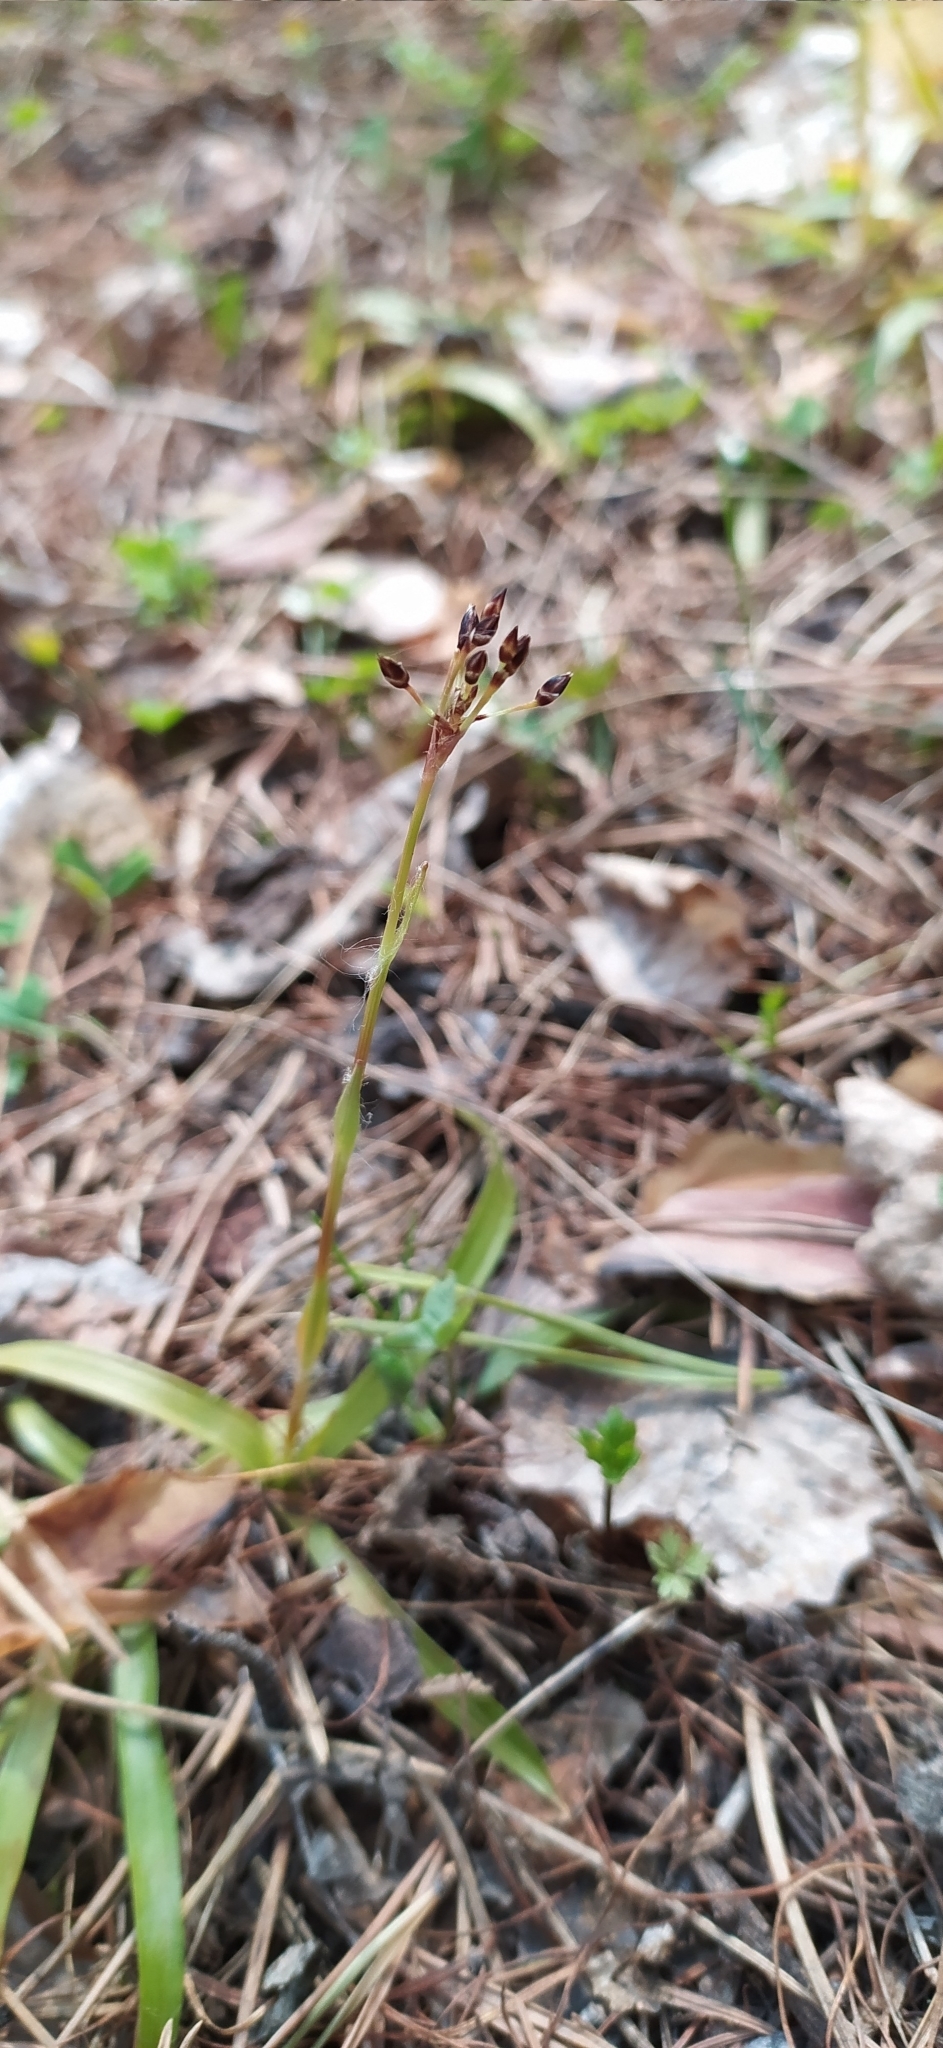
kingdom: Plantae
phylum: Tracheophyta
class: Liliopsida
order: Poales
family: Juncaceae
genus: Luzula
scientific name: Luzula pilosa
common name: Hairy wood-rush
